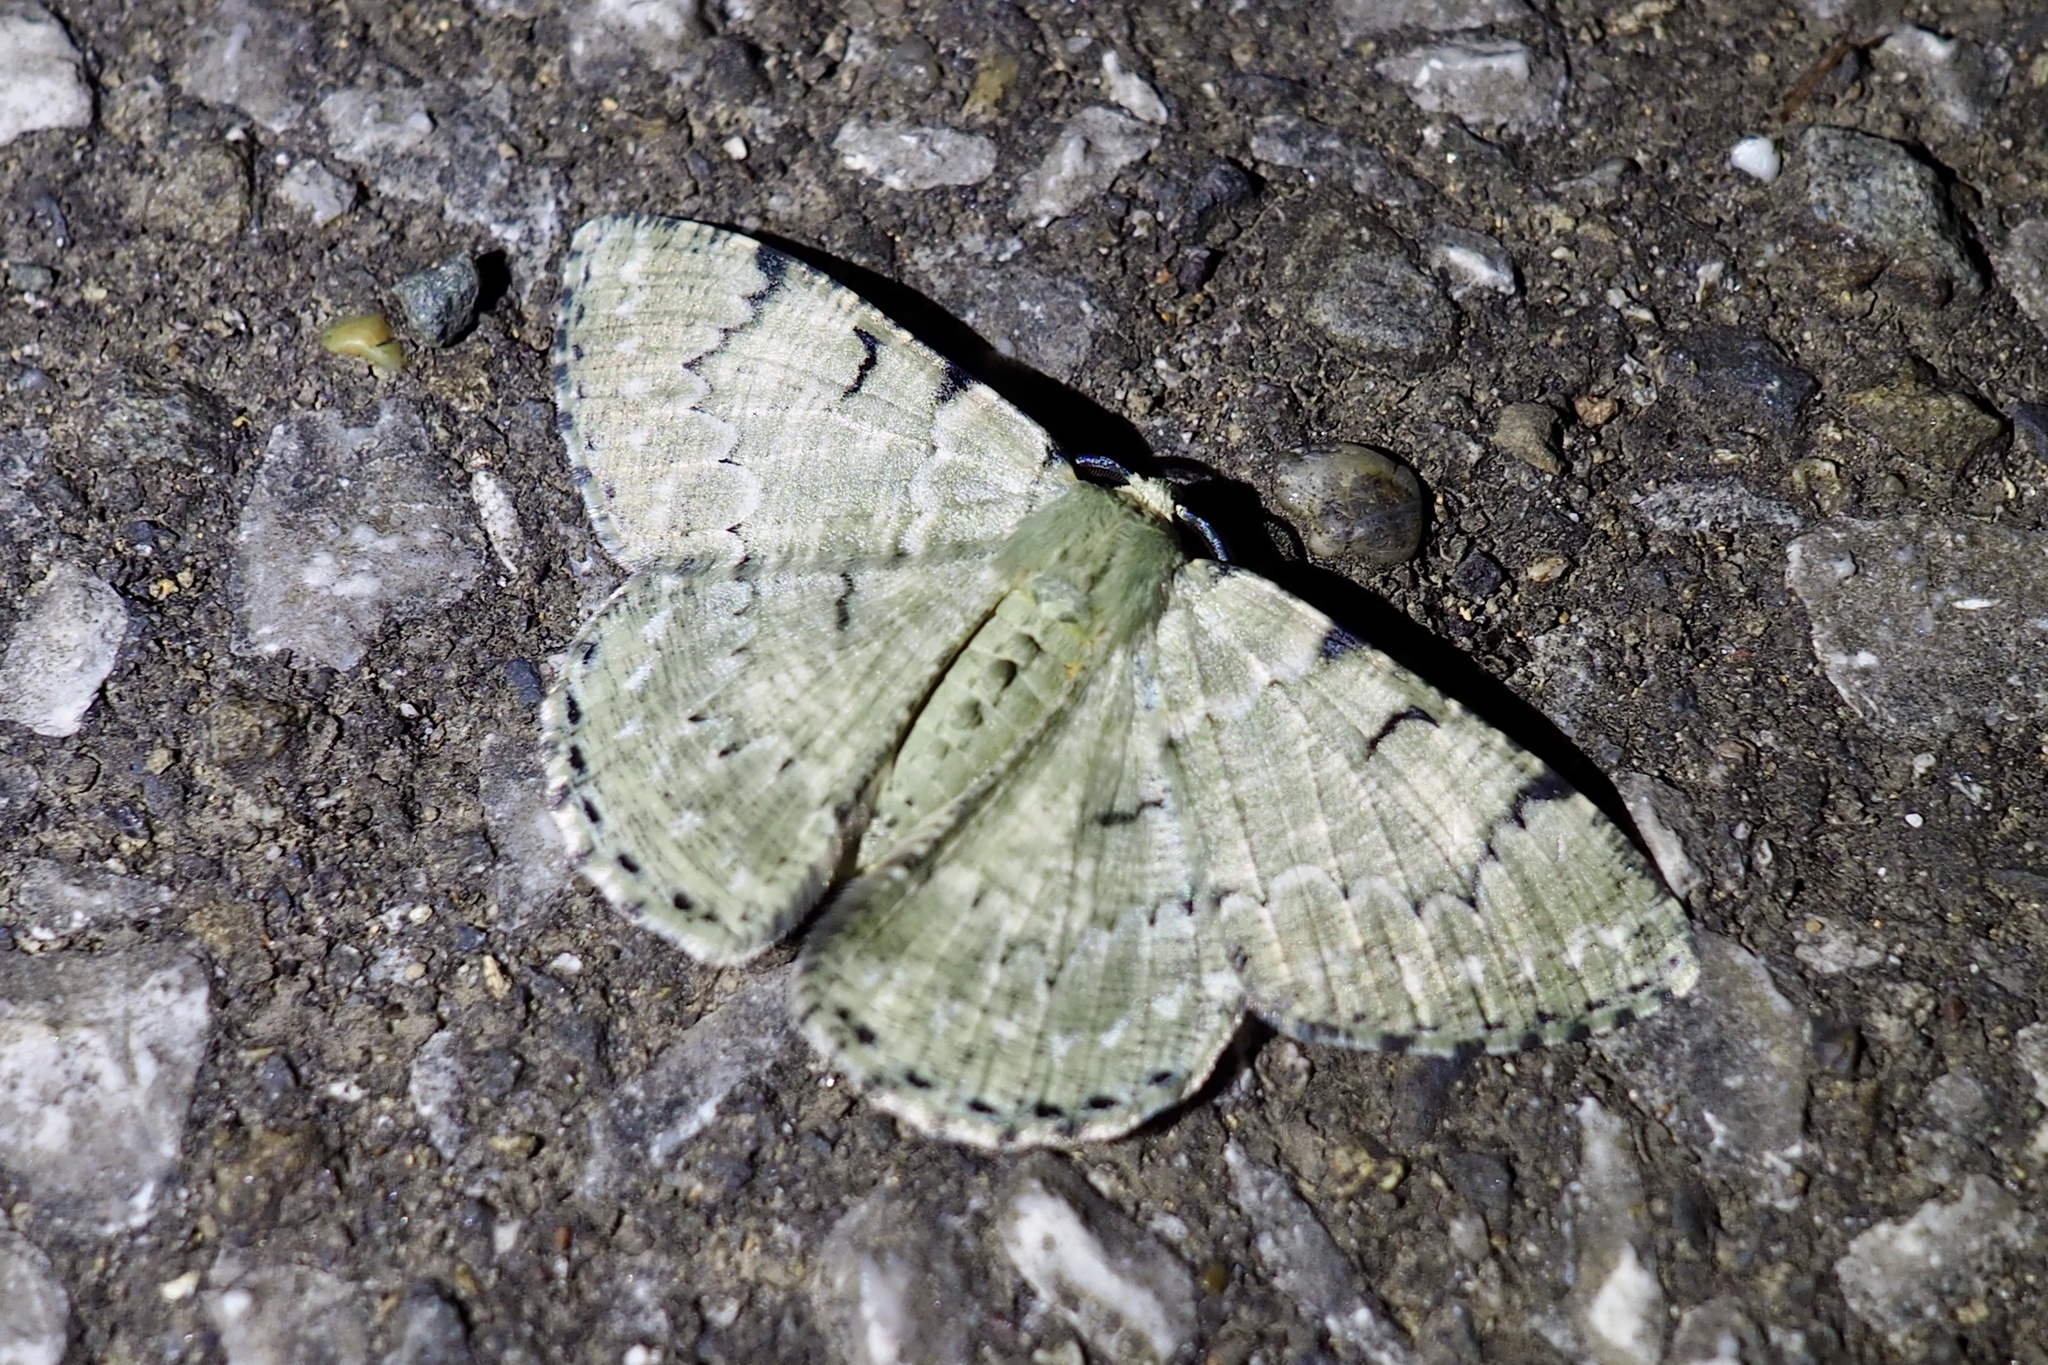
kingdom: Animalia
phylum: Arthropoda
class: Insecta
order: Lepidoptera
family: Geometridae
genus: Pachista
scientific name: Pachista superans
